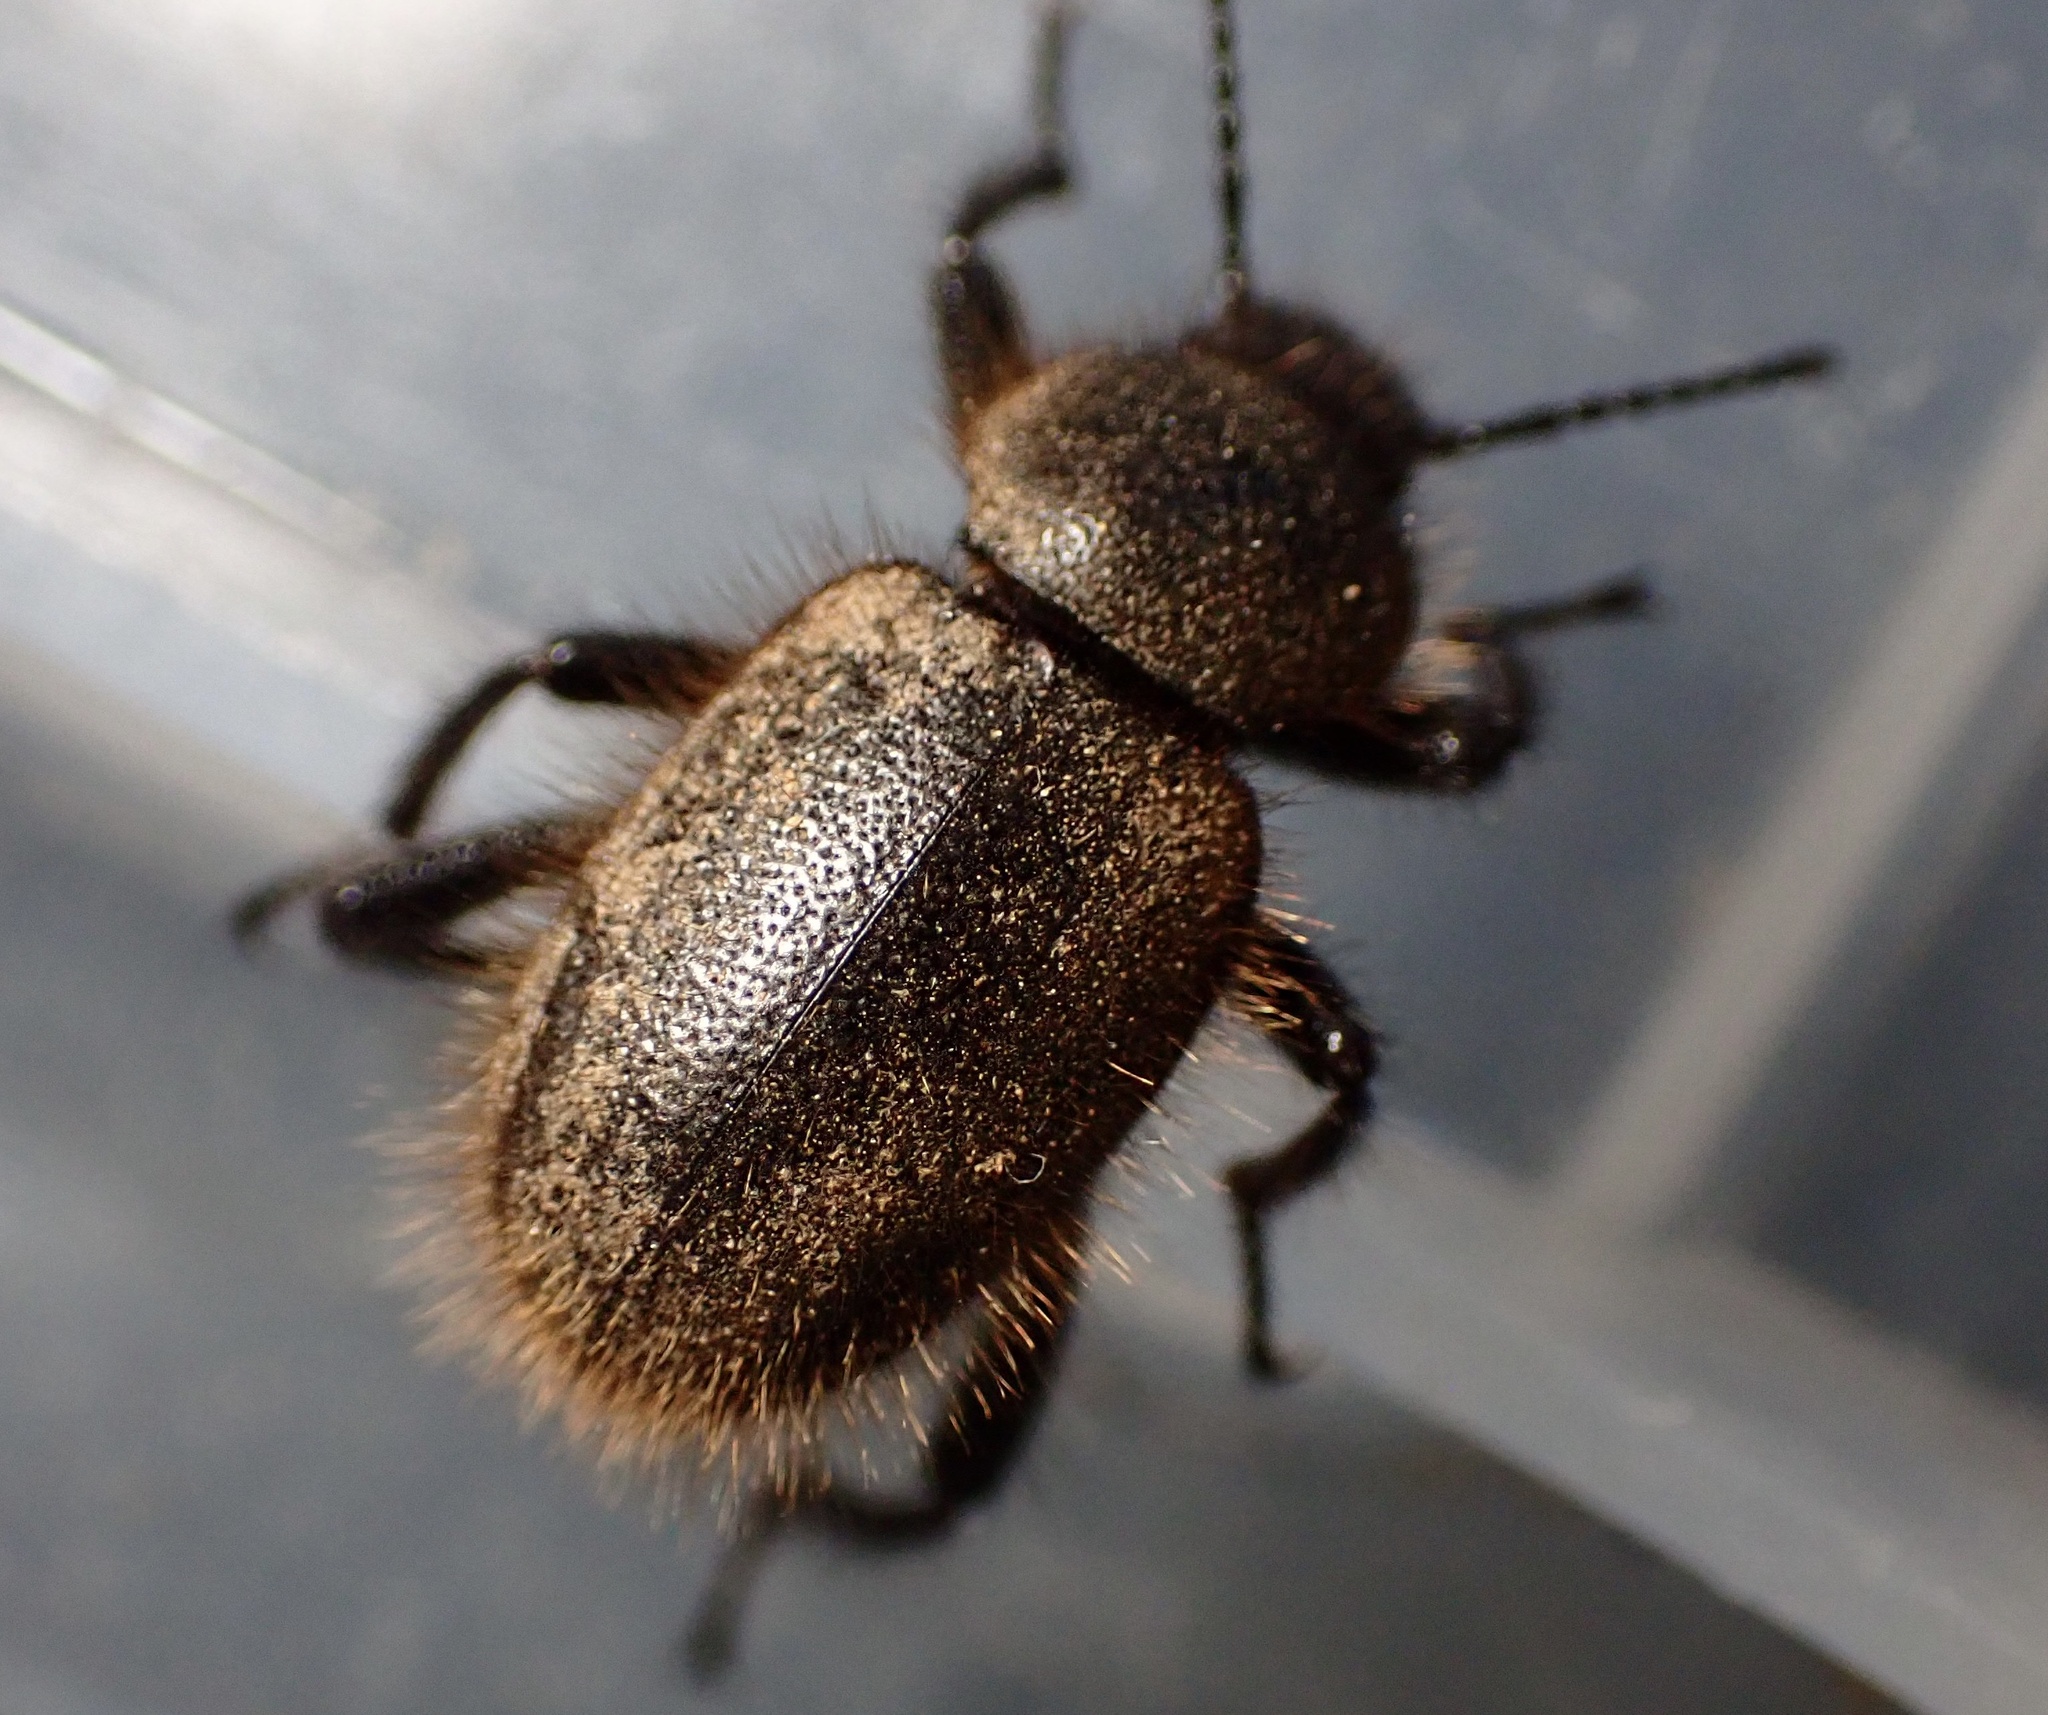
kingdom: Animalia
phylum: Arthropoda
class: Insecta
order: Coleoptera
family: Tenebrionidae
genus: Eleodes
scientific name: Eleodes osculans
